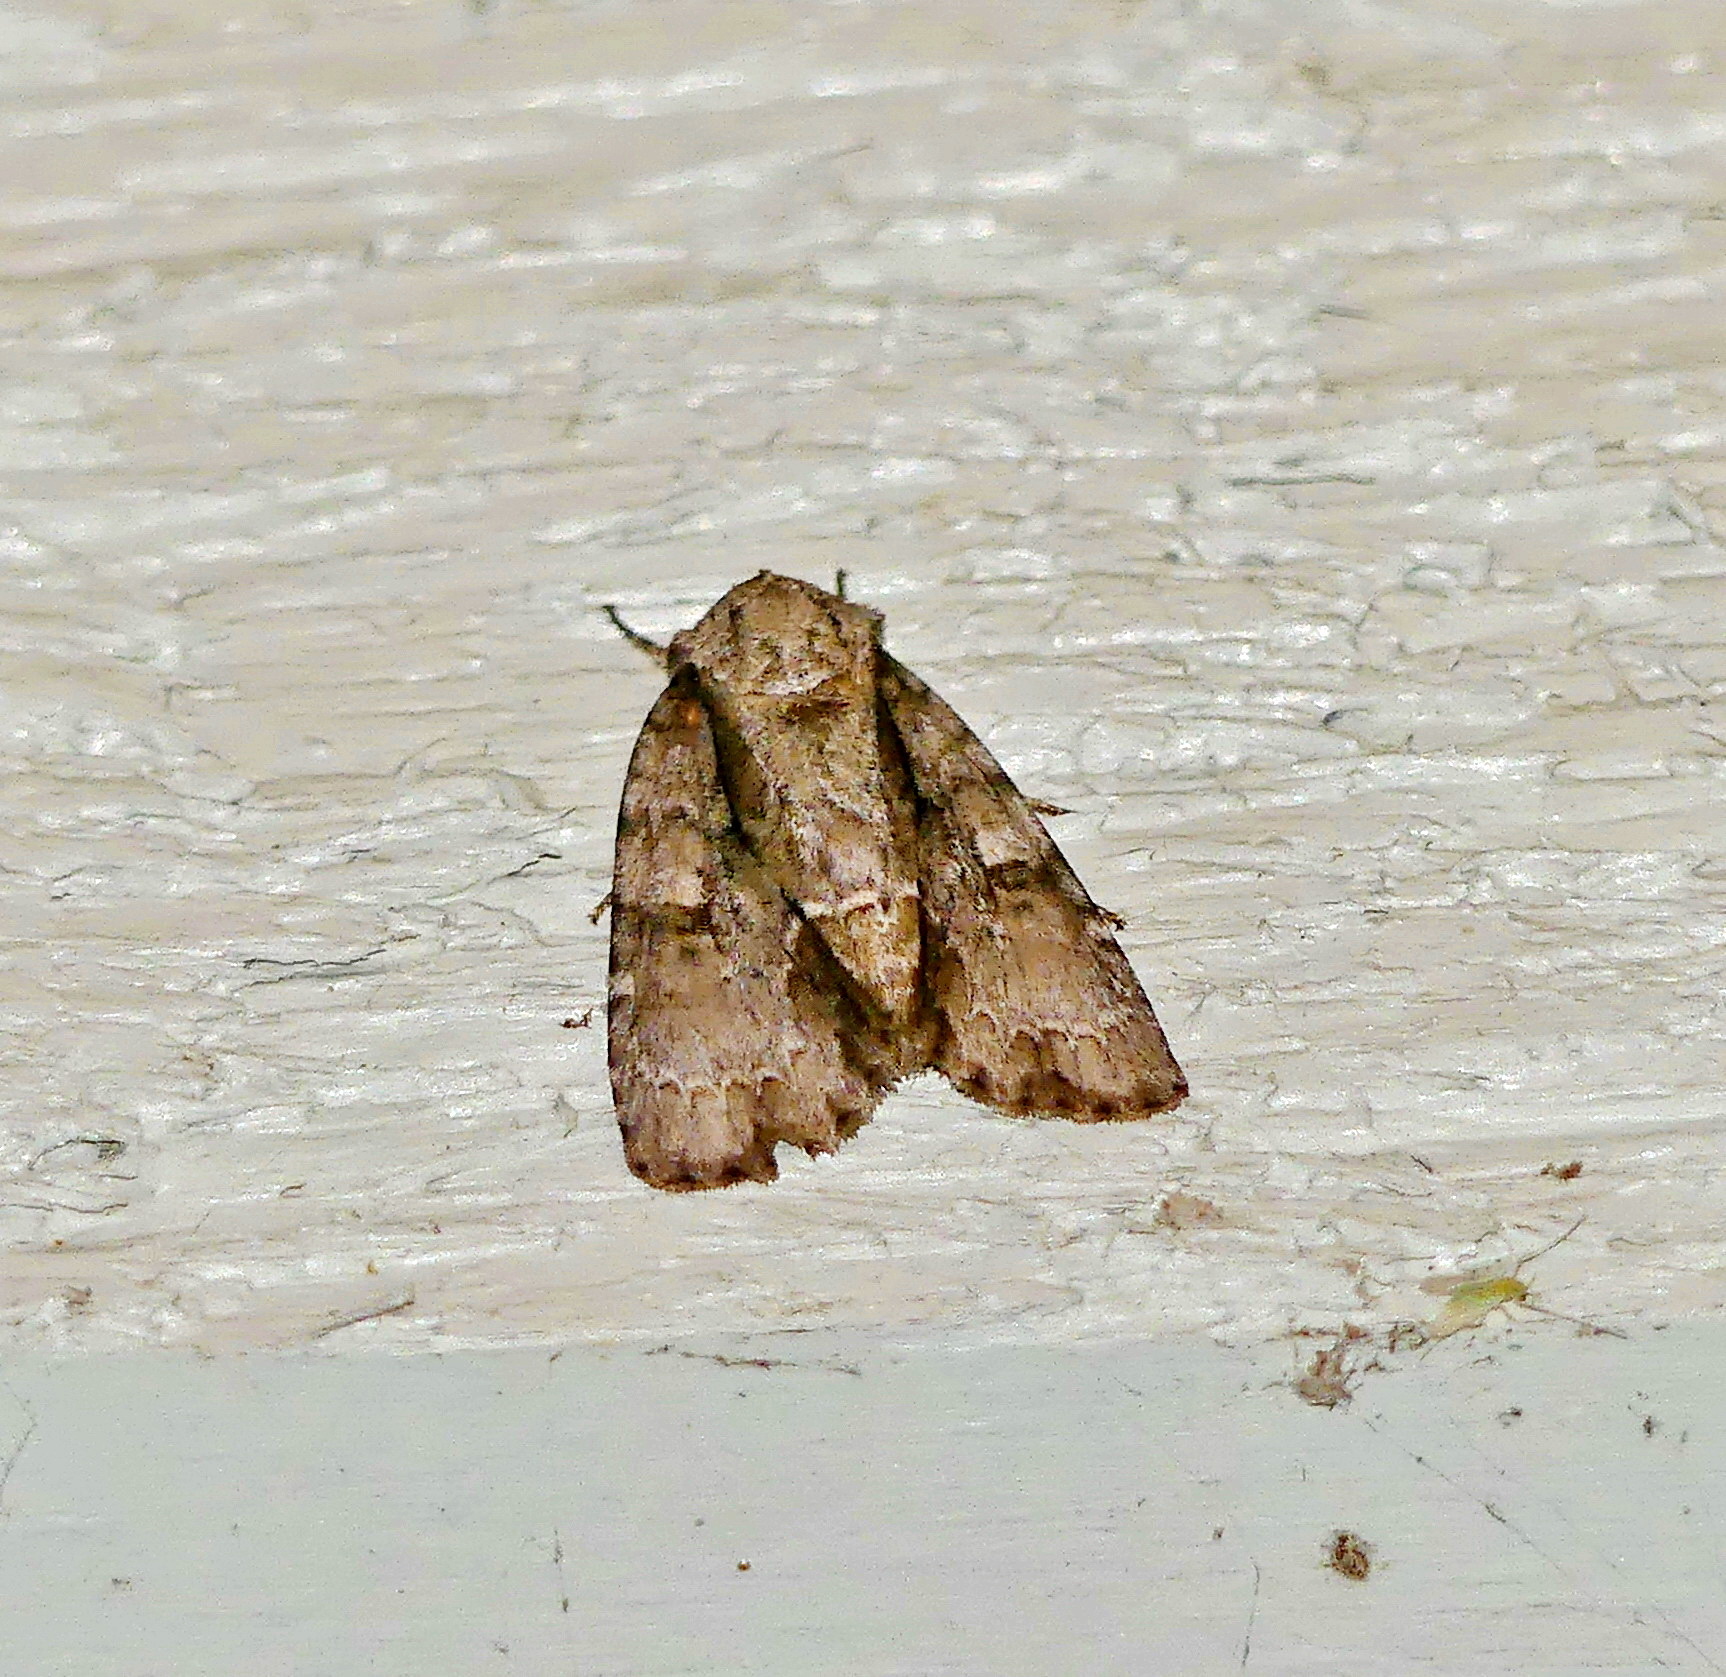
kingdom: Animalia
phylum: Arthropoda
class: Insecta
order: Lepidoptera
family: Noctuidae
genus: Acronicta
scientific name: Acronicta connecta
